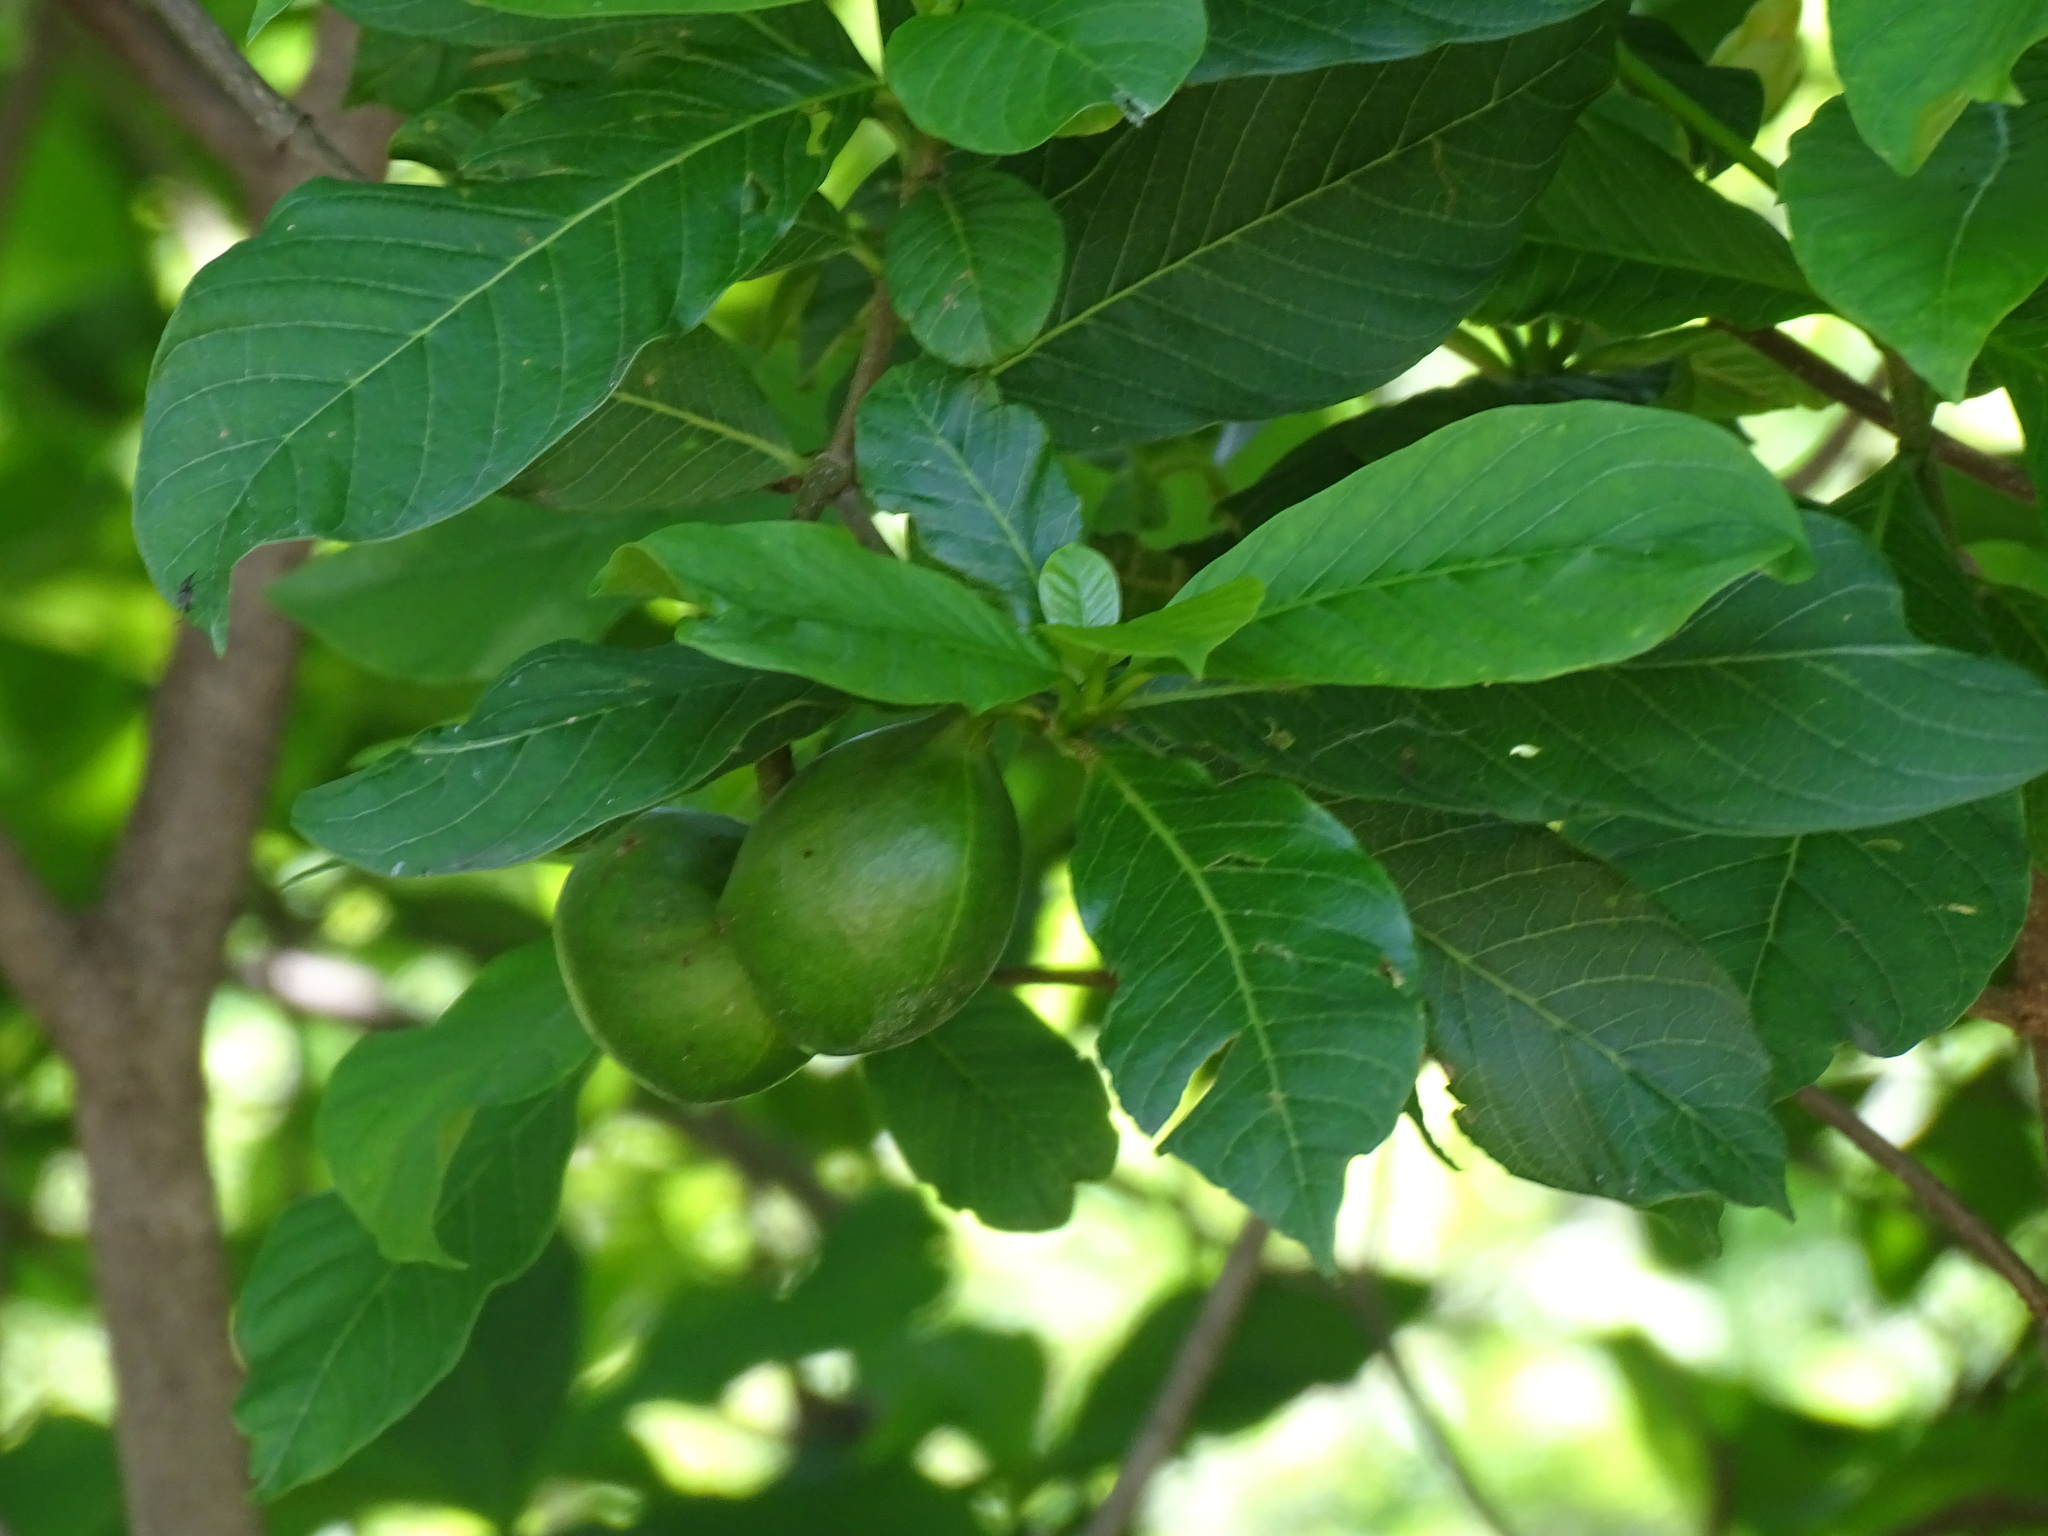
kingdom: Plantae
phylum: Tracheophyta
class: Magnoliopsida
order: Gentianales
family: Apocynaceae
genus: Tabernaemontana
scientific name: Tabernaemontana glabra
